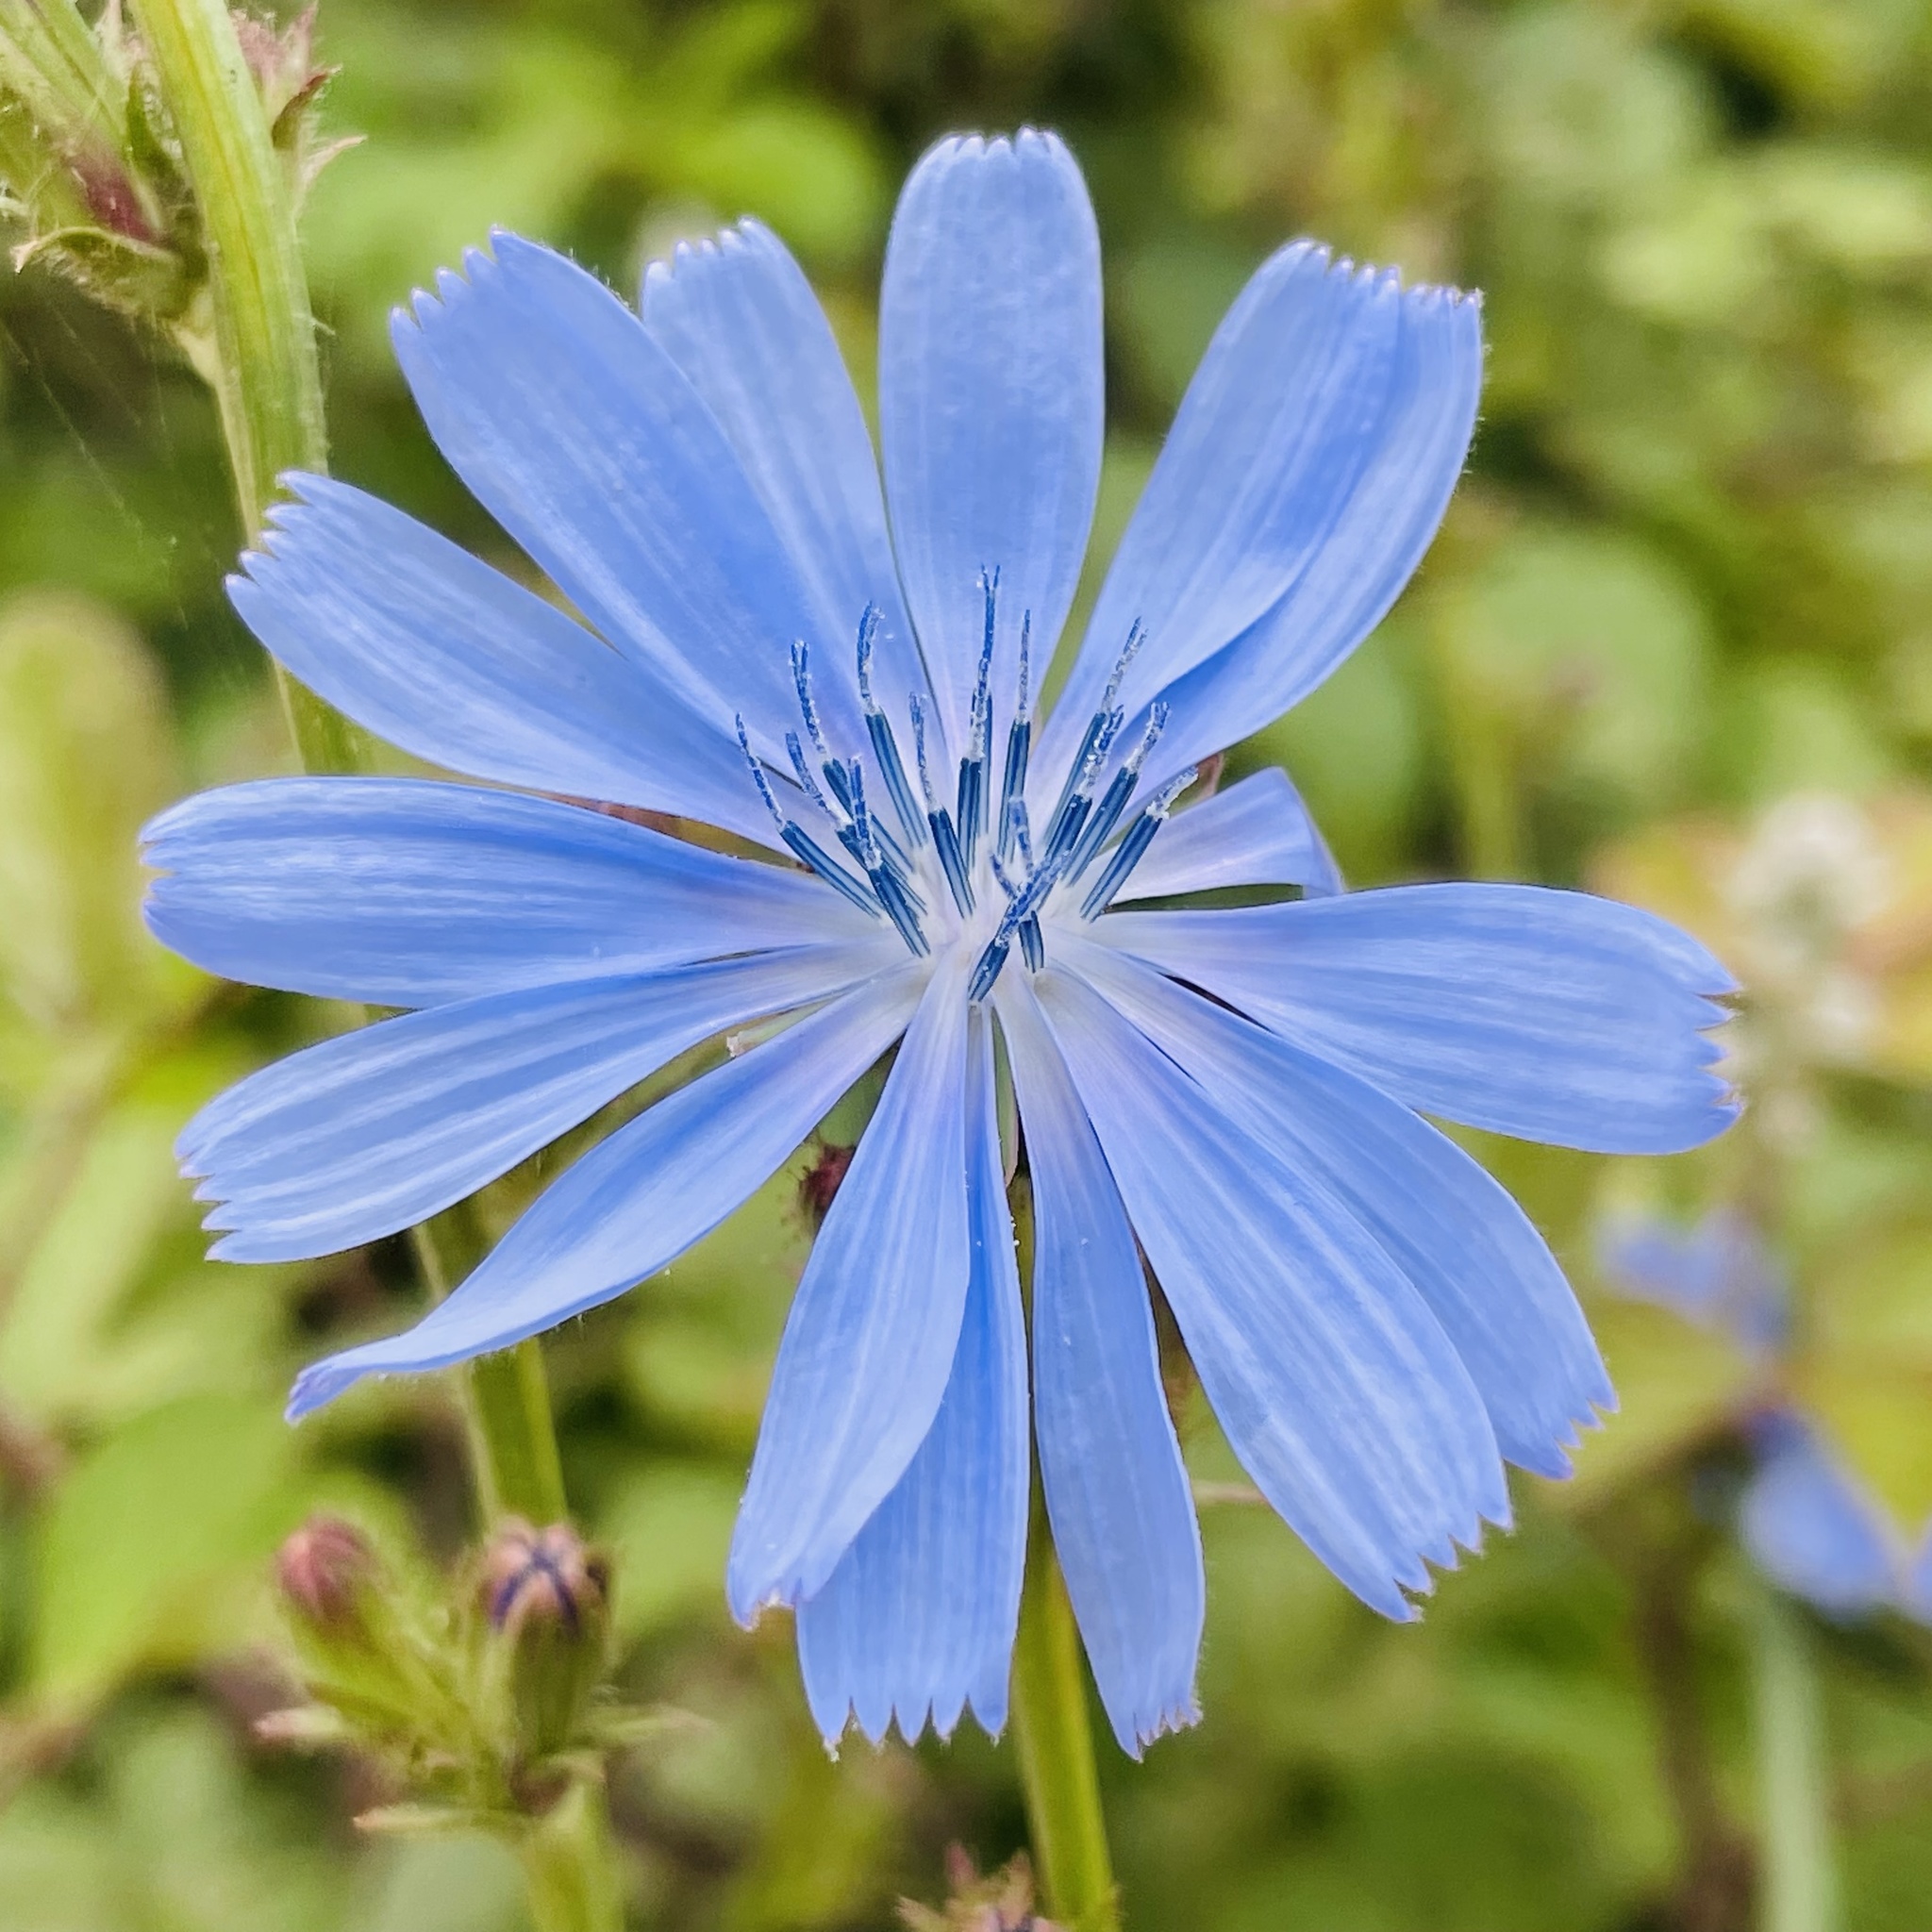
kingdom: Plantae
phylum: Tracheophyta
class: Magnoliopsida
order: Asterales
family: Asteraceae
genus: Cichorium
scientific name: Cichorium intybus
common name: Chicory
